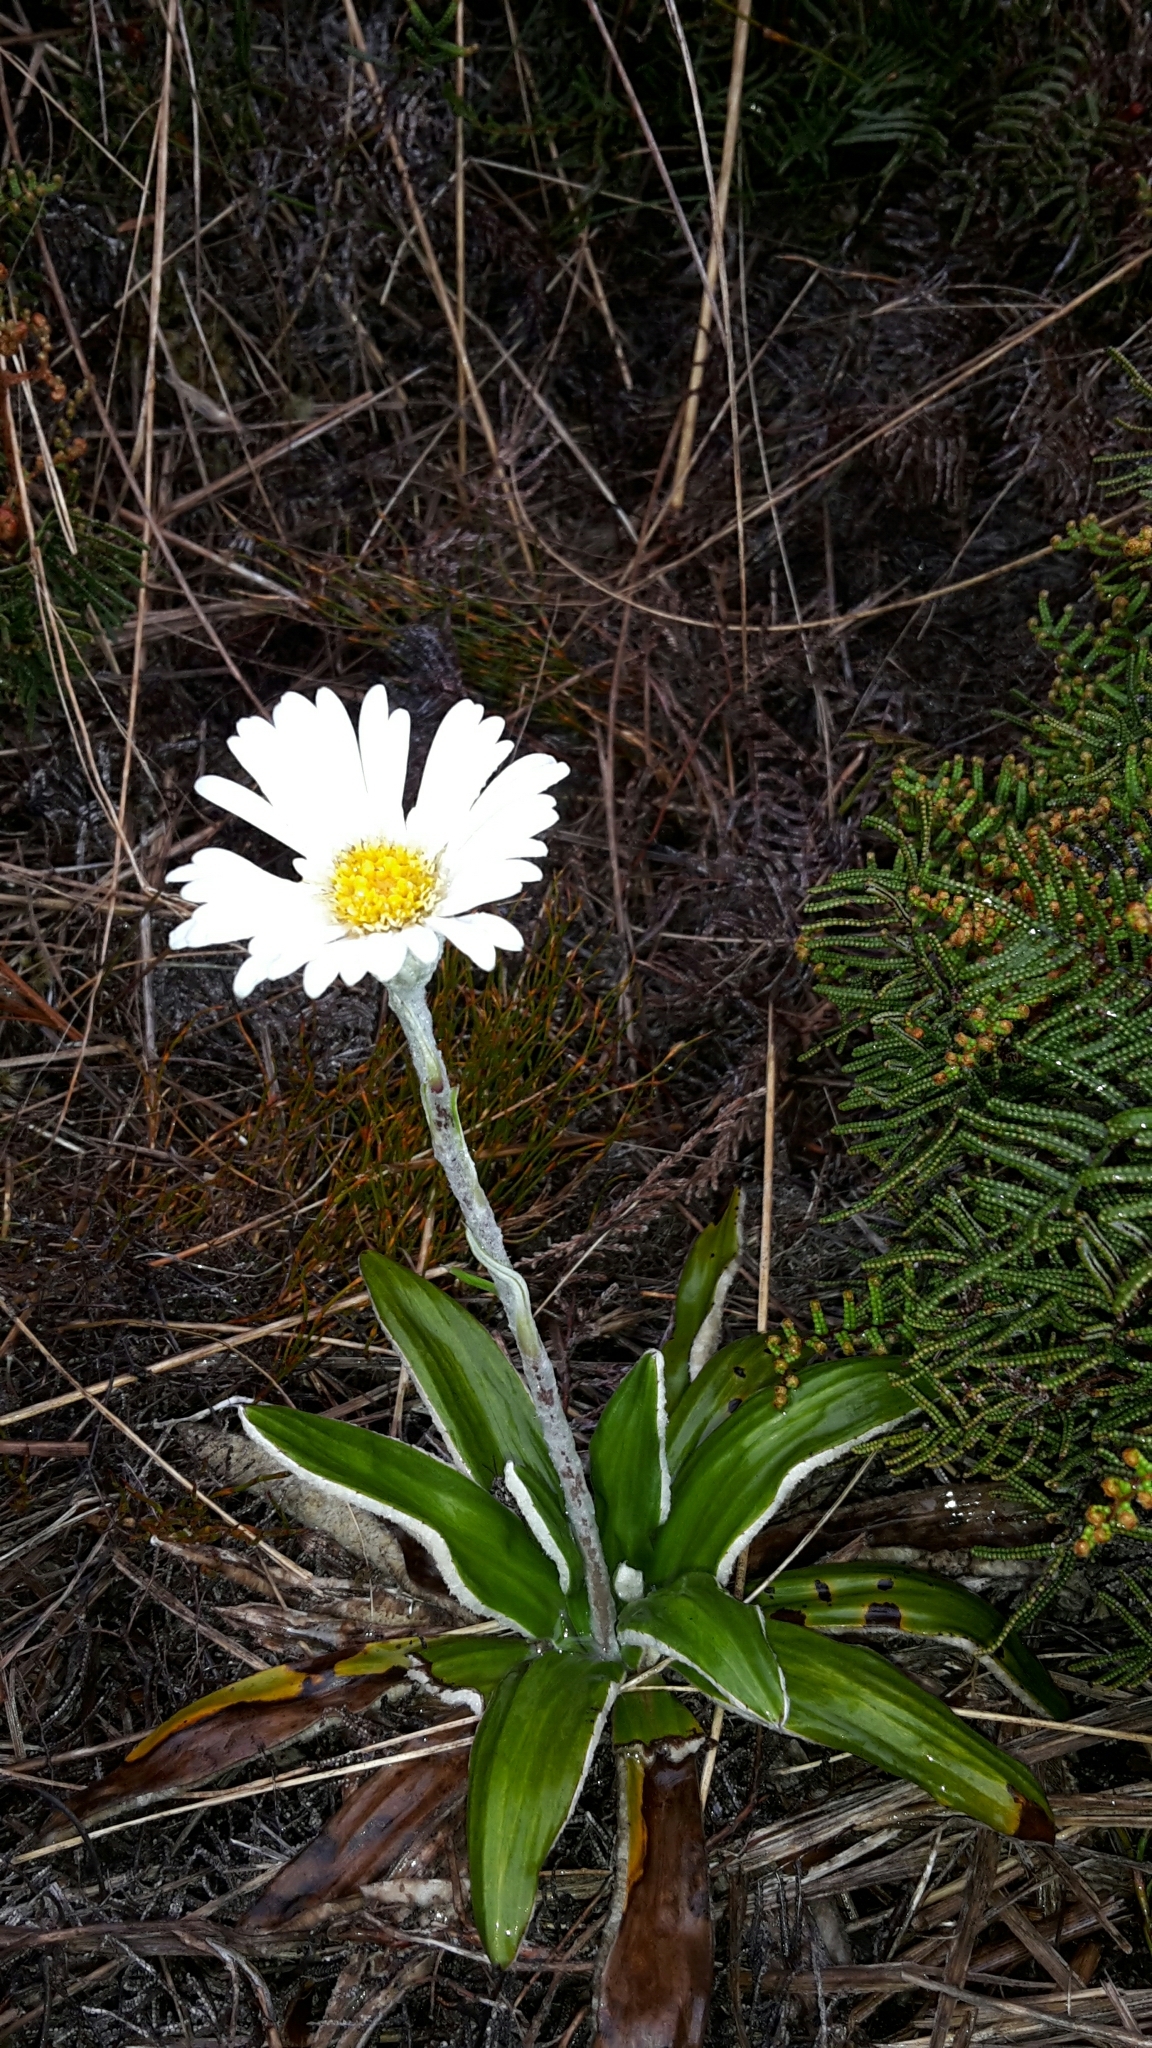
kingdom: Plantae
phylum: Tracheophyta
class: Magnoliopsida
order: Asterales
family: Asteraceae
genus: Celmisia
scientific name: Celmisia spectabilis
